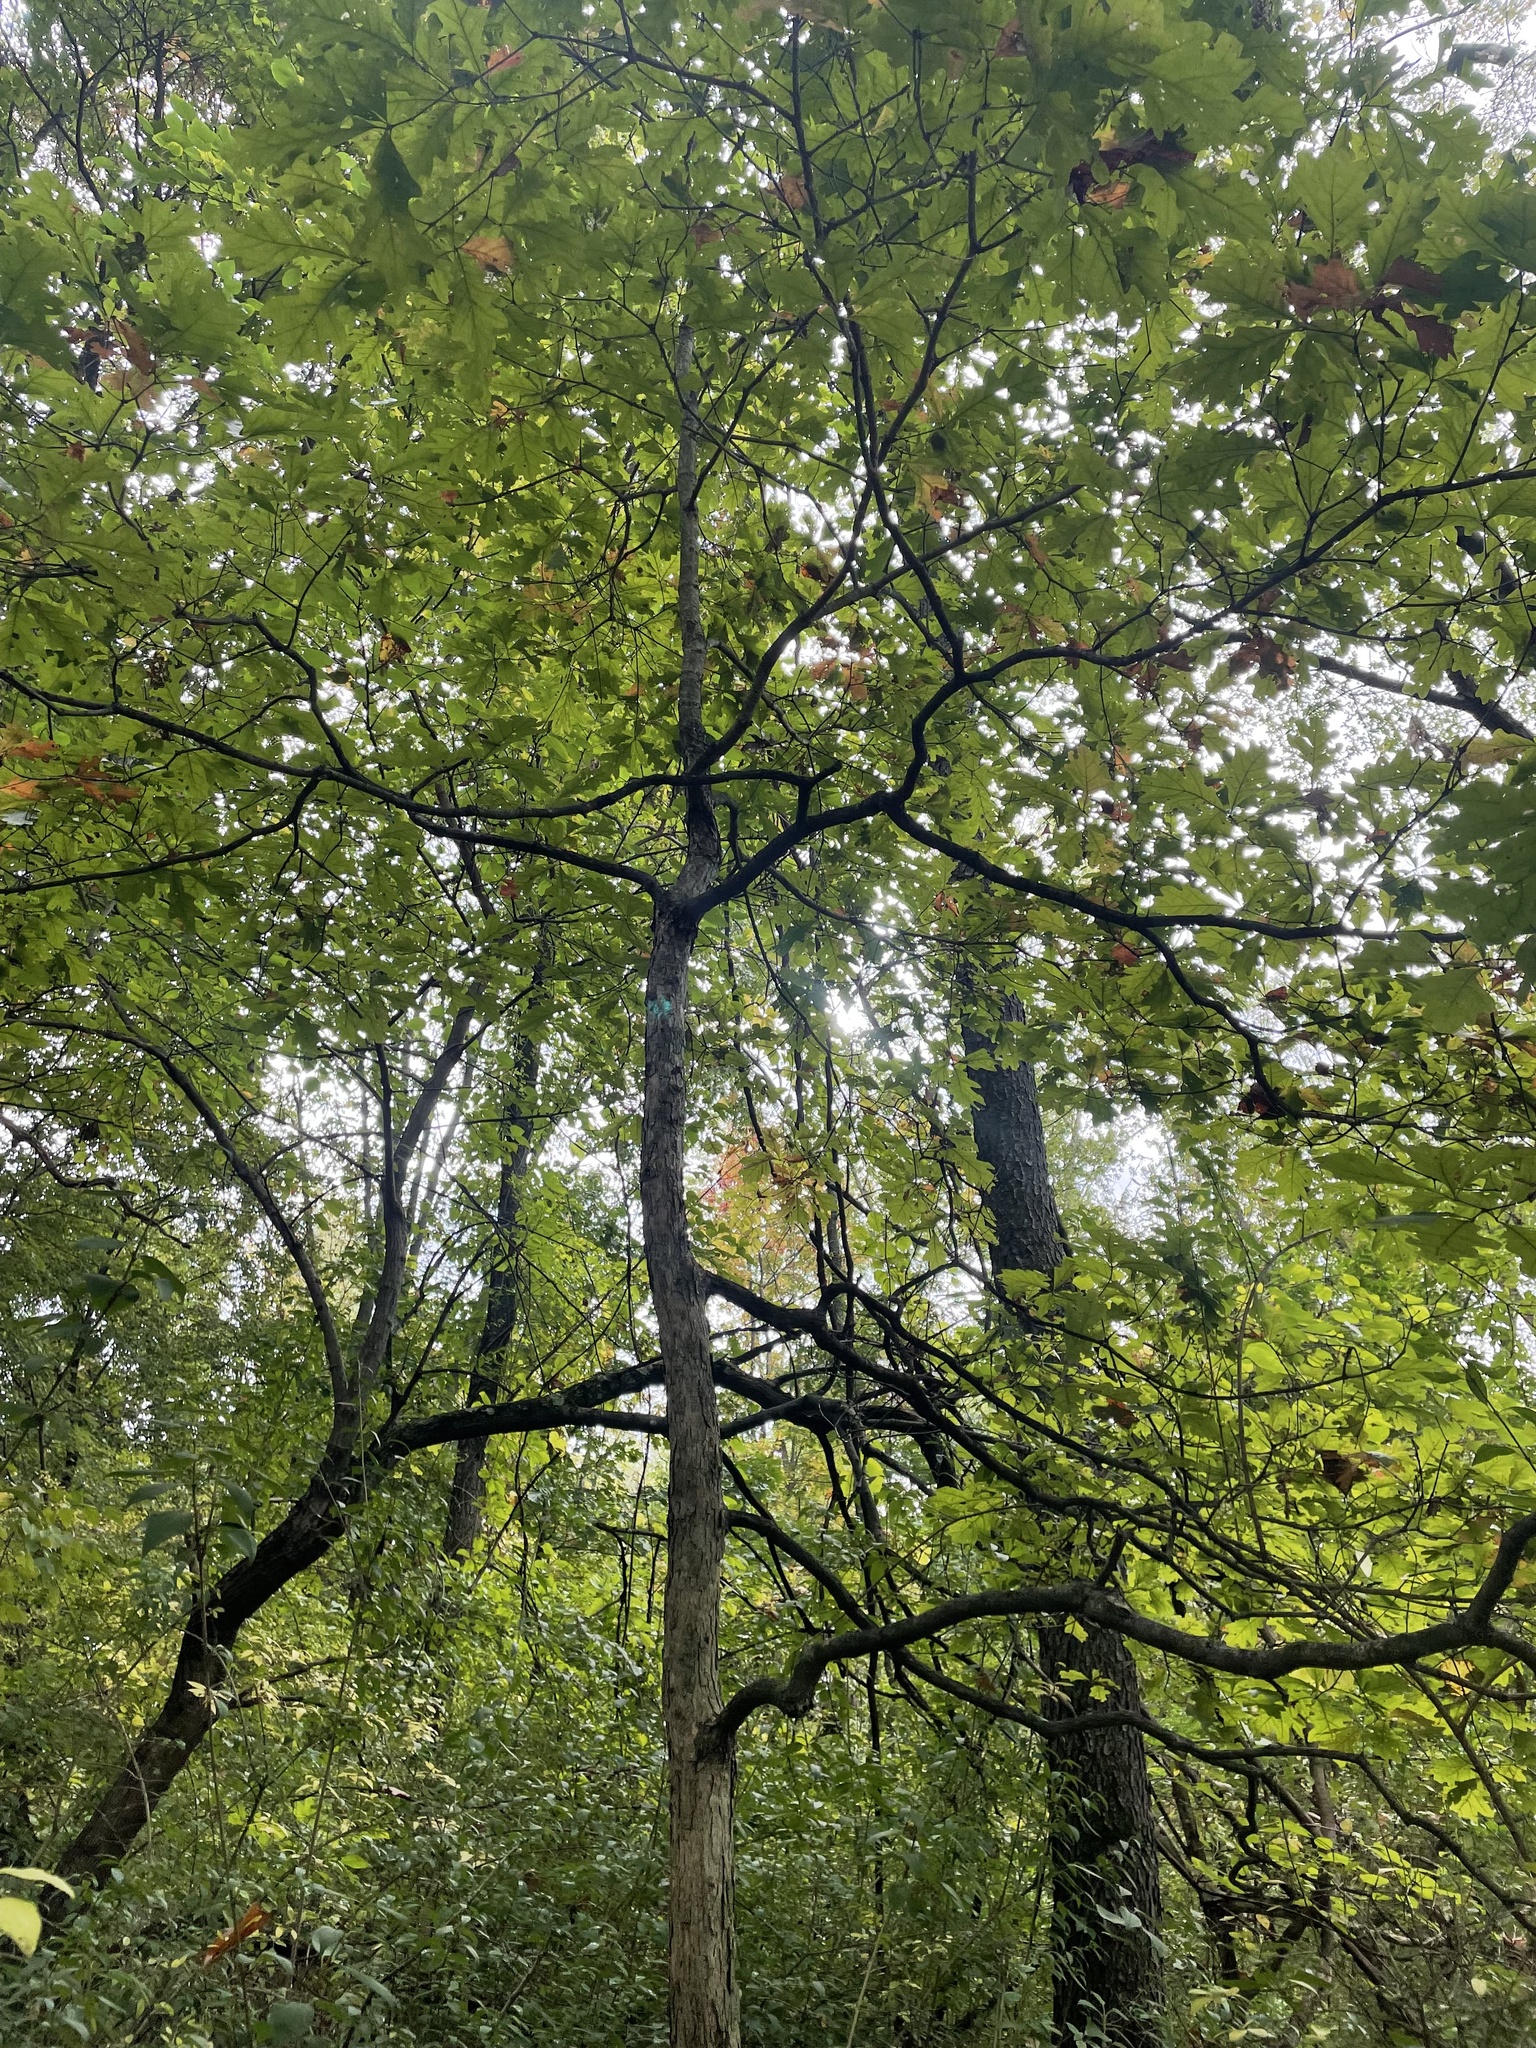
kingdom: Plantae
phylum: Tracheophyta
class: Magnoliopsida
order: Fagales
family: Fagaceae
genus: Quercus
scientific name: Quercus alba
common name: White oak
